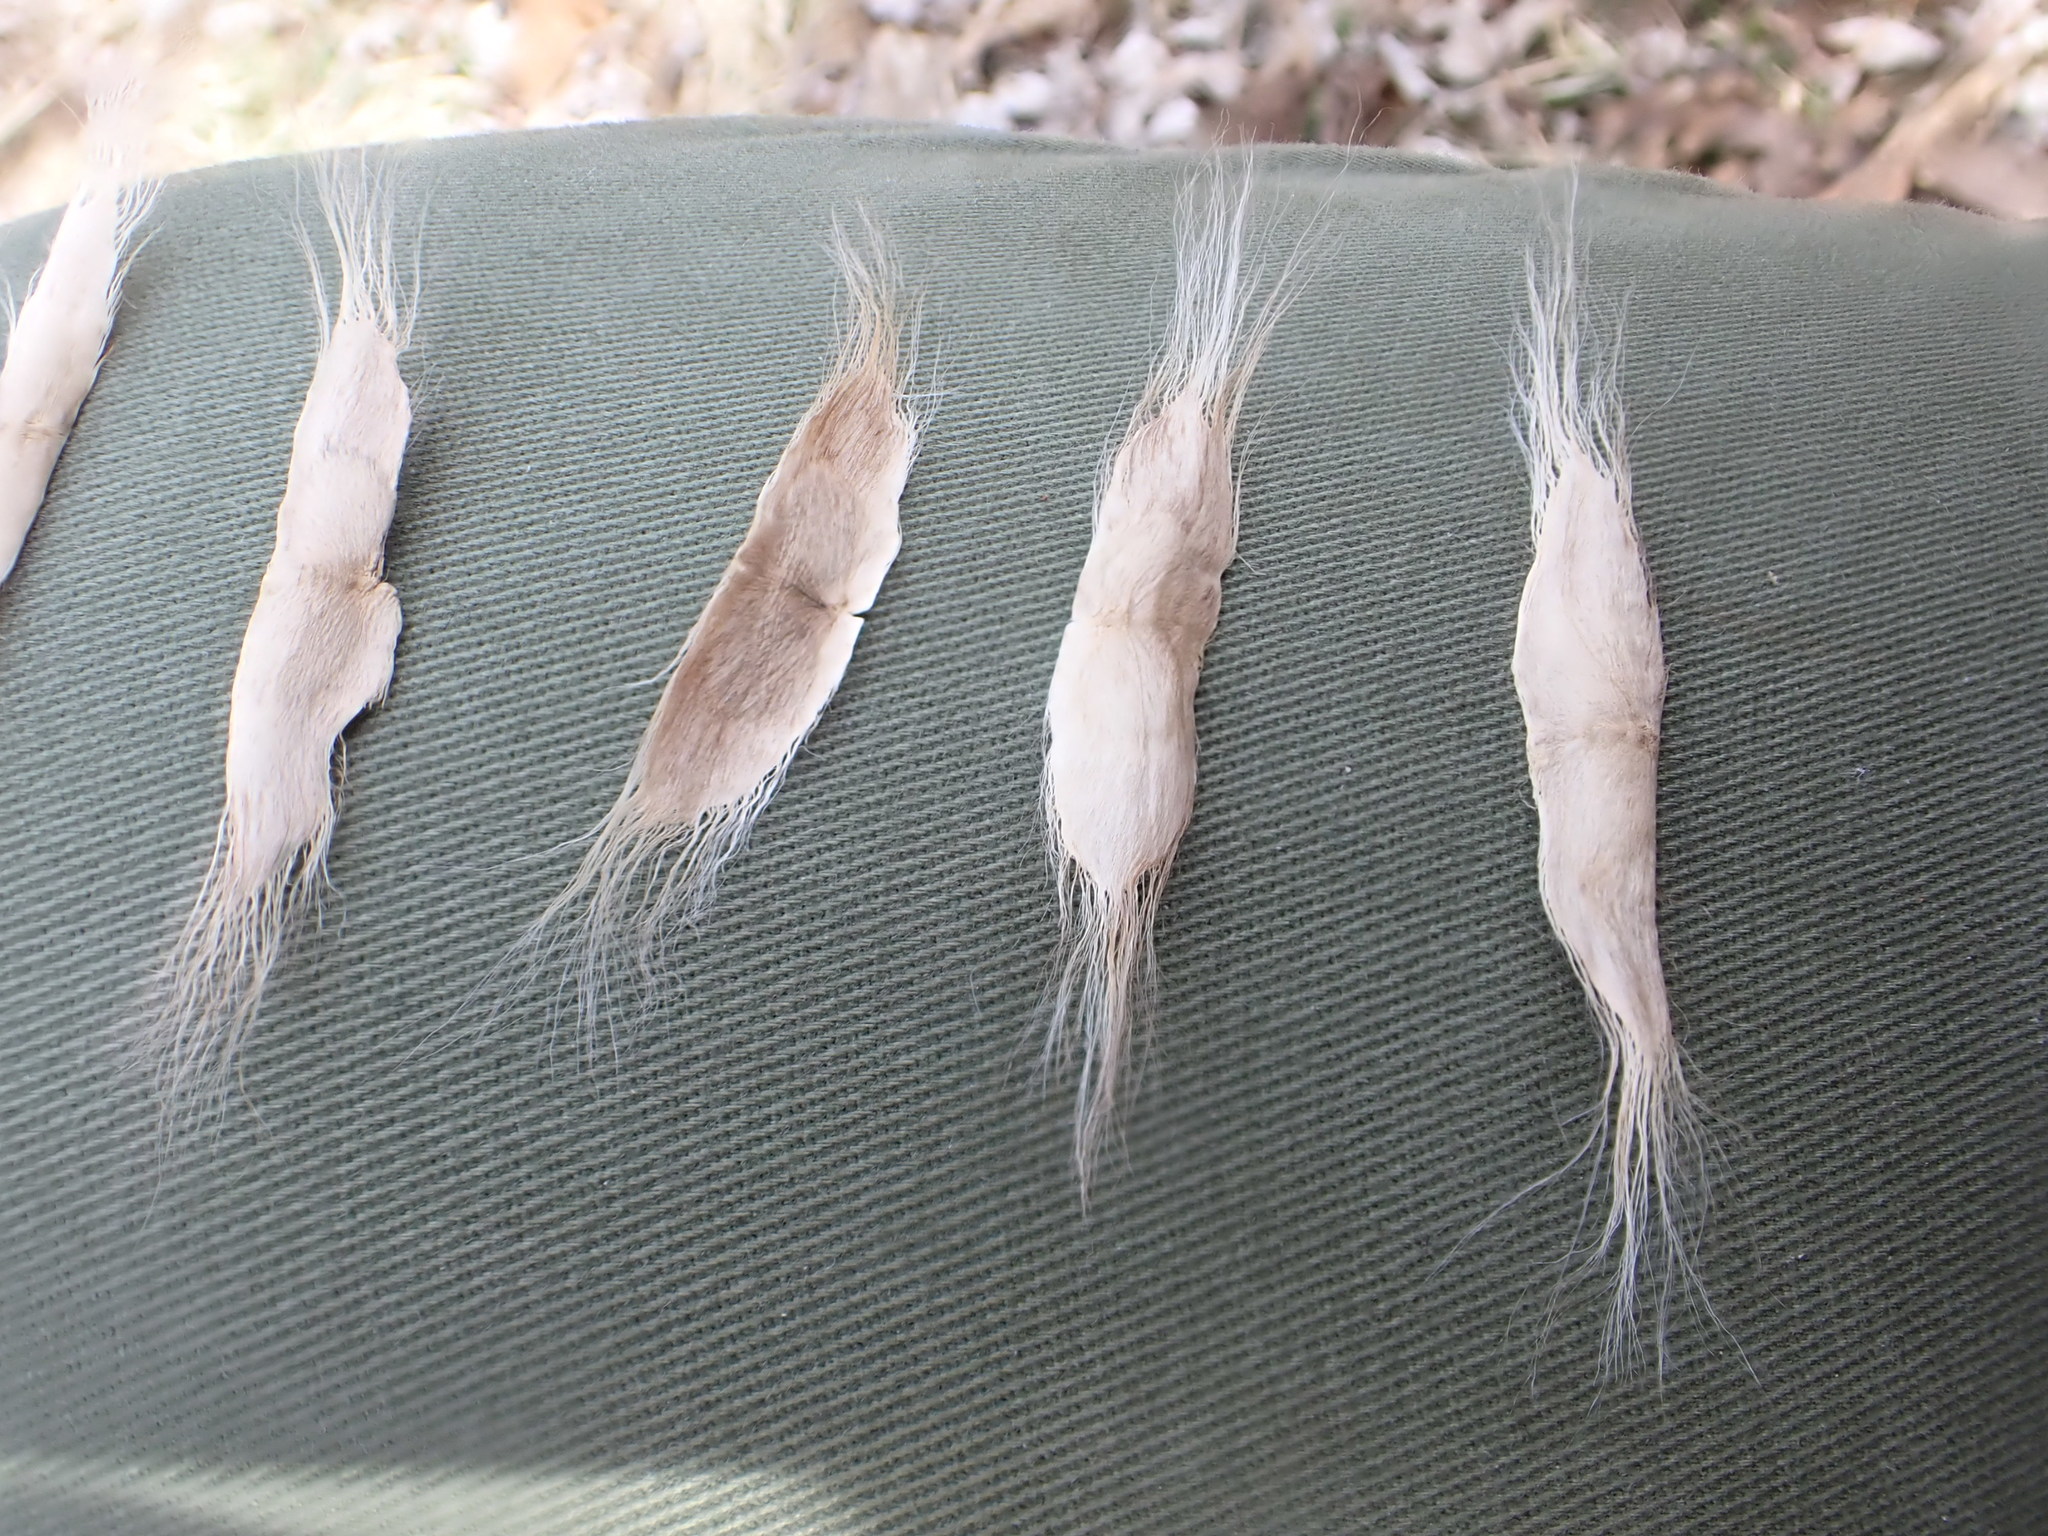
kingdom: Plantae
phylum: Tracheophyta
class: Magnoliopsida
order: Lamiales
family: Bignoniaceae
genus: Catalpa
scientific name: Catalpa speciosa
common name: Northern catalpa
